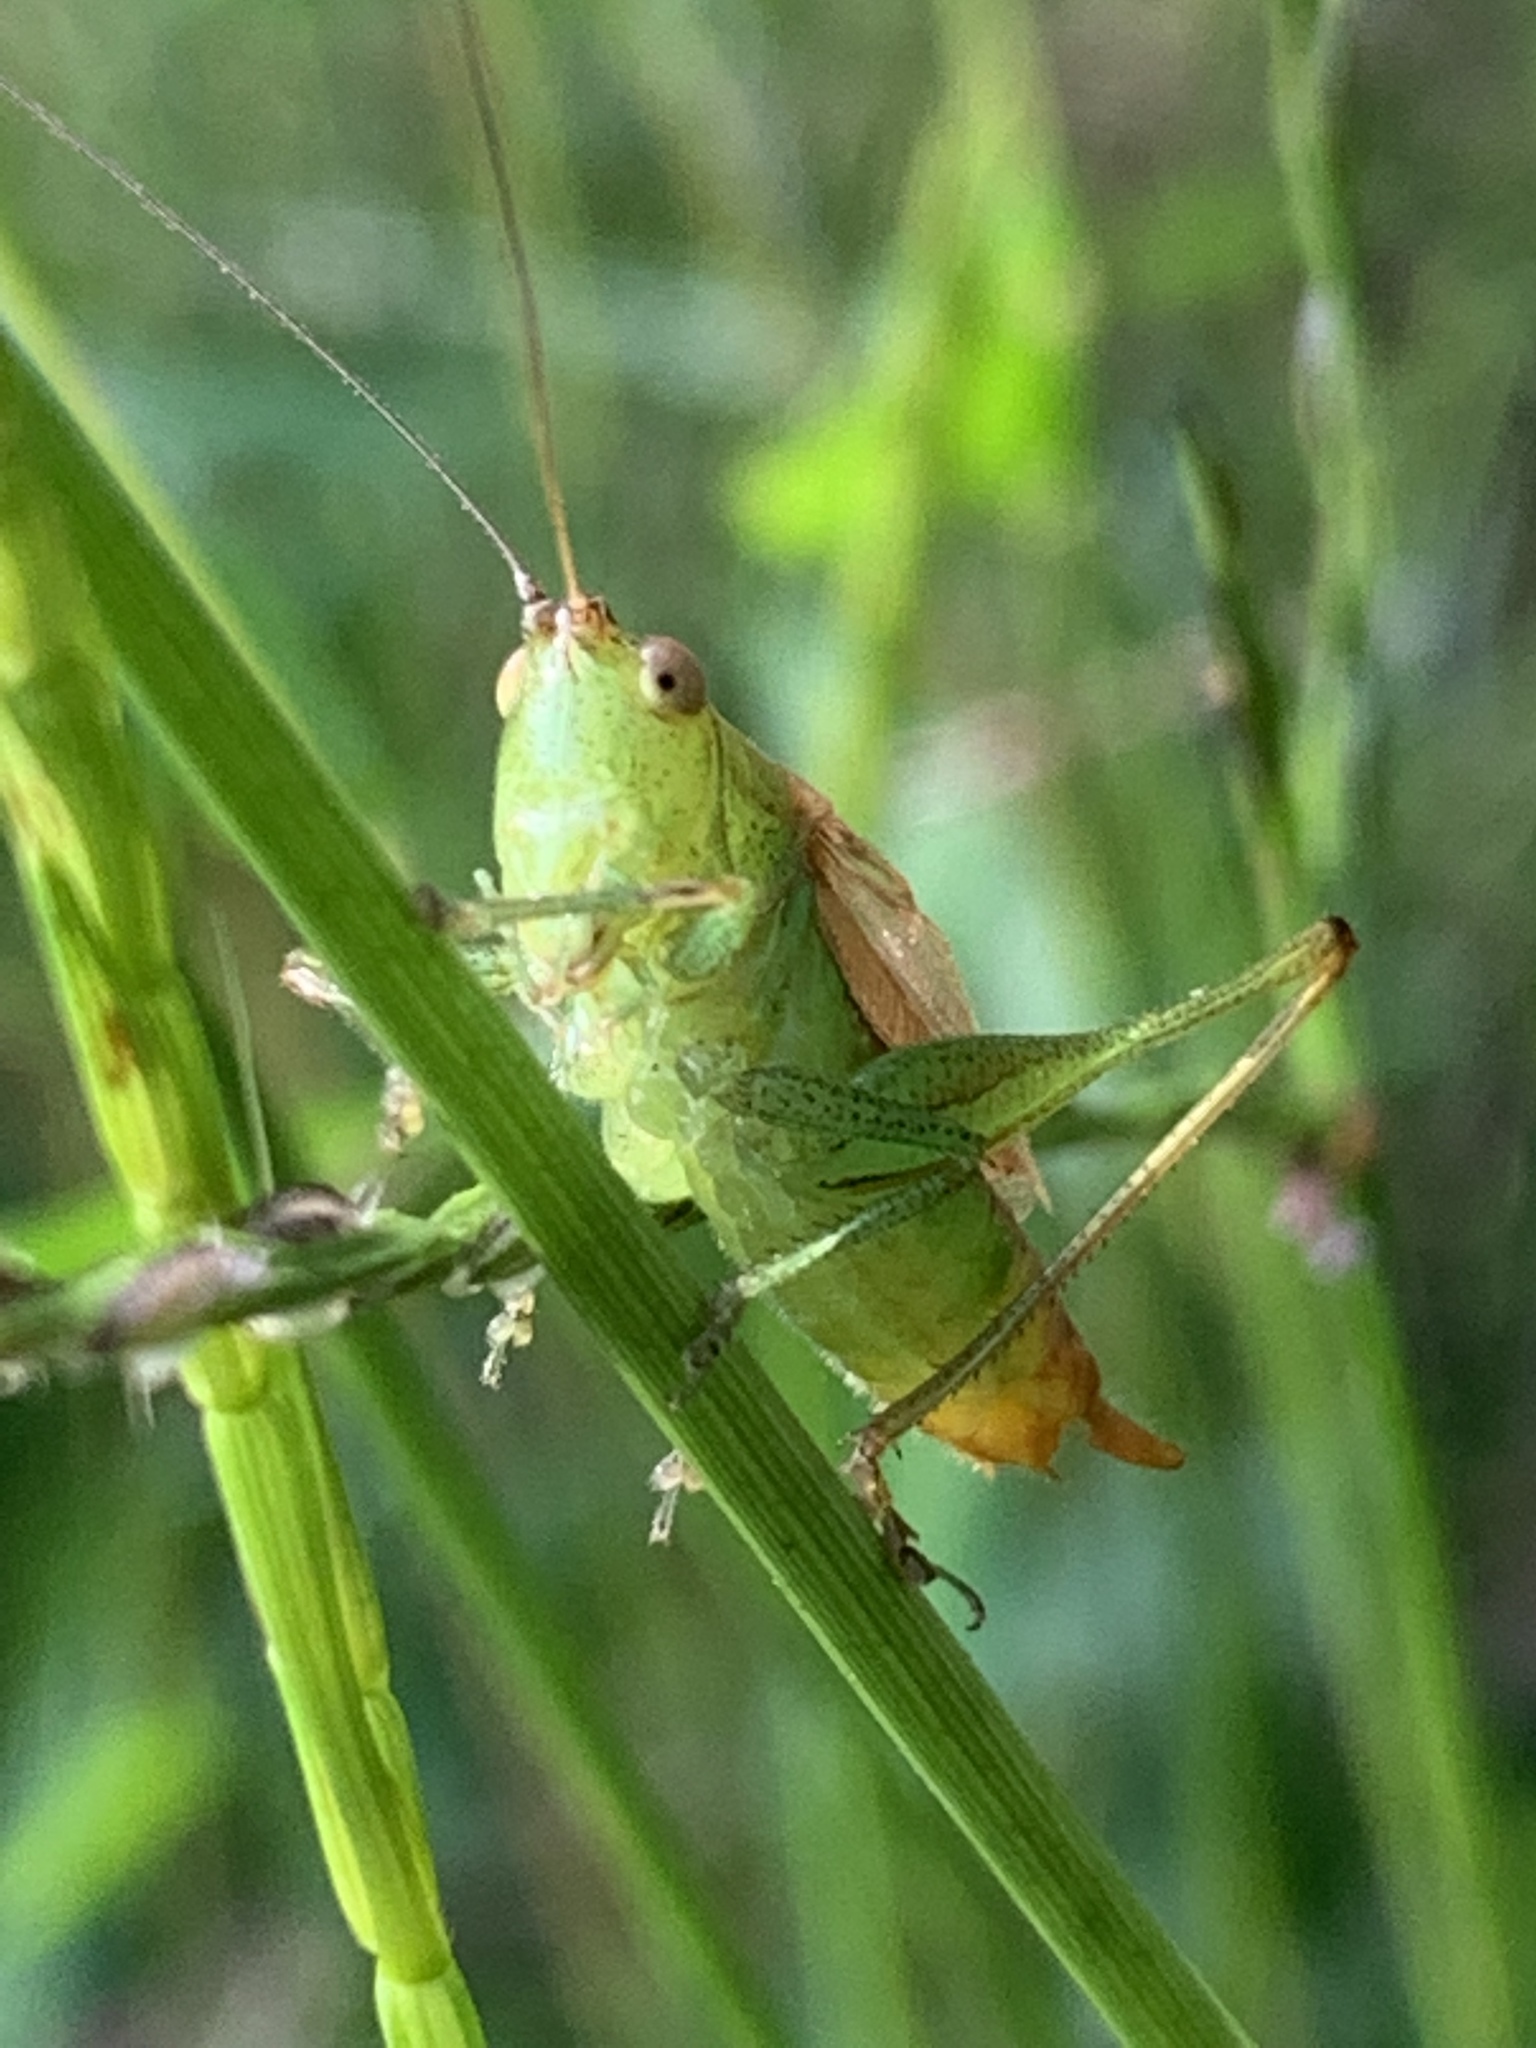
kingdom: Animalia
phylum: Arthropoda
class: Insecta
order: Orthoptera
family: Tettigoniidae
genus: Conocephalus
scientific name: Conocephalus brevipennis
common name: Short-winged meadow katydid
